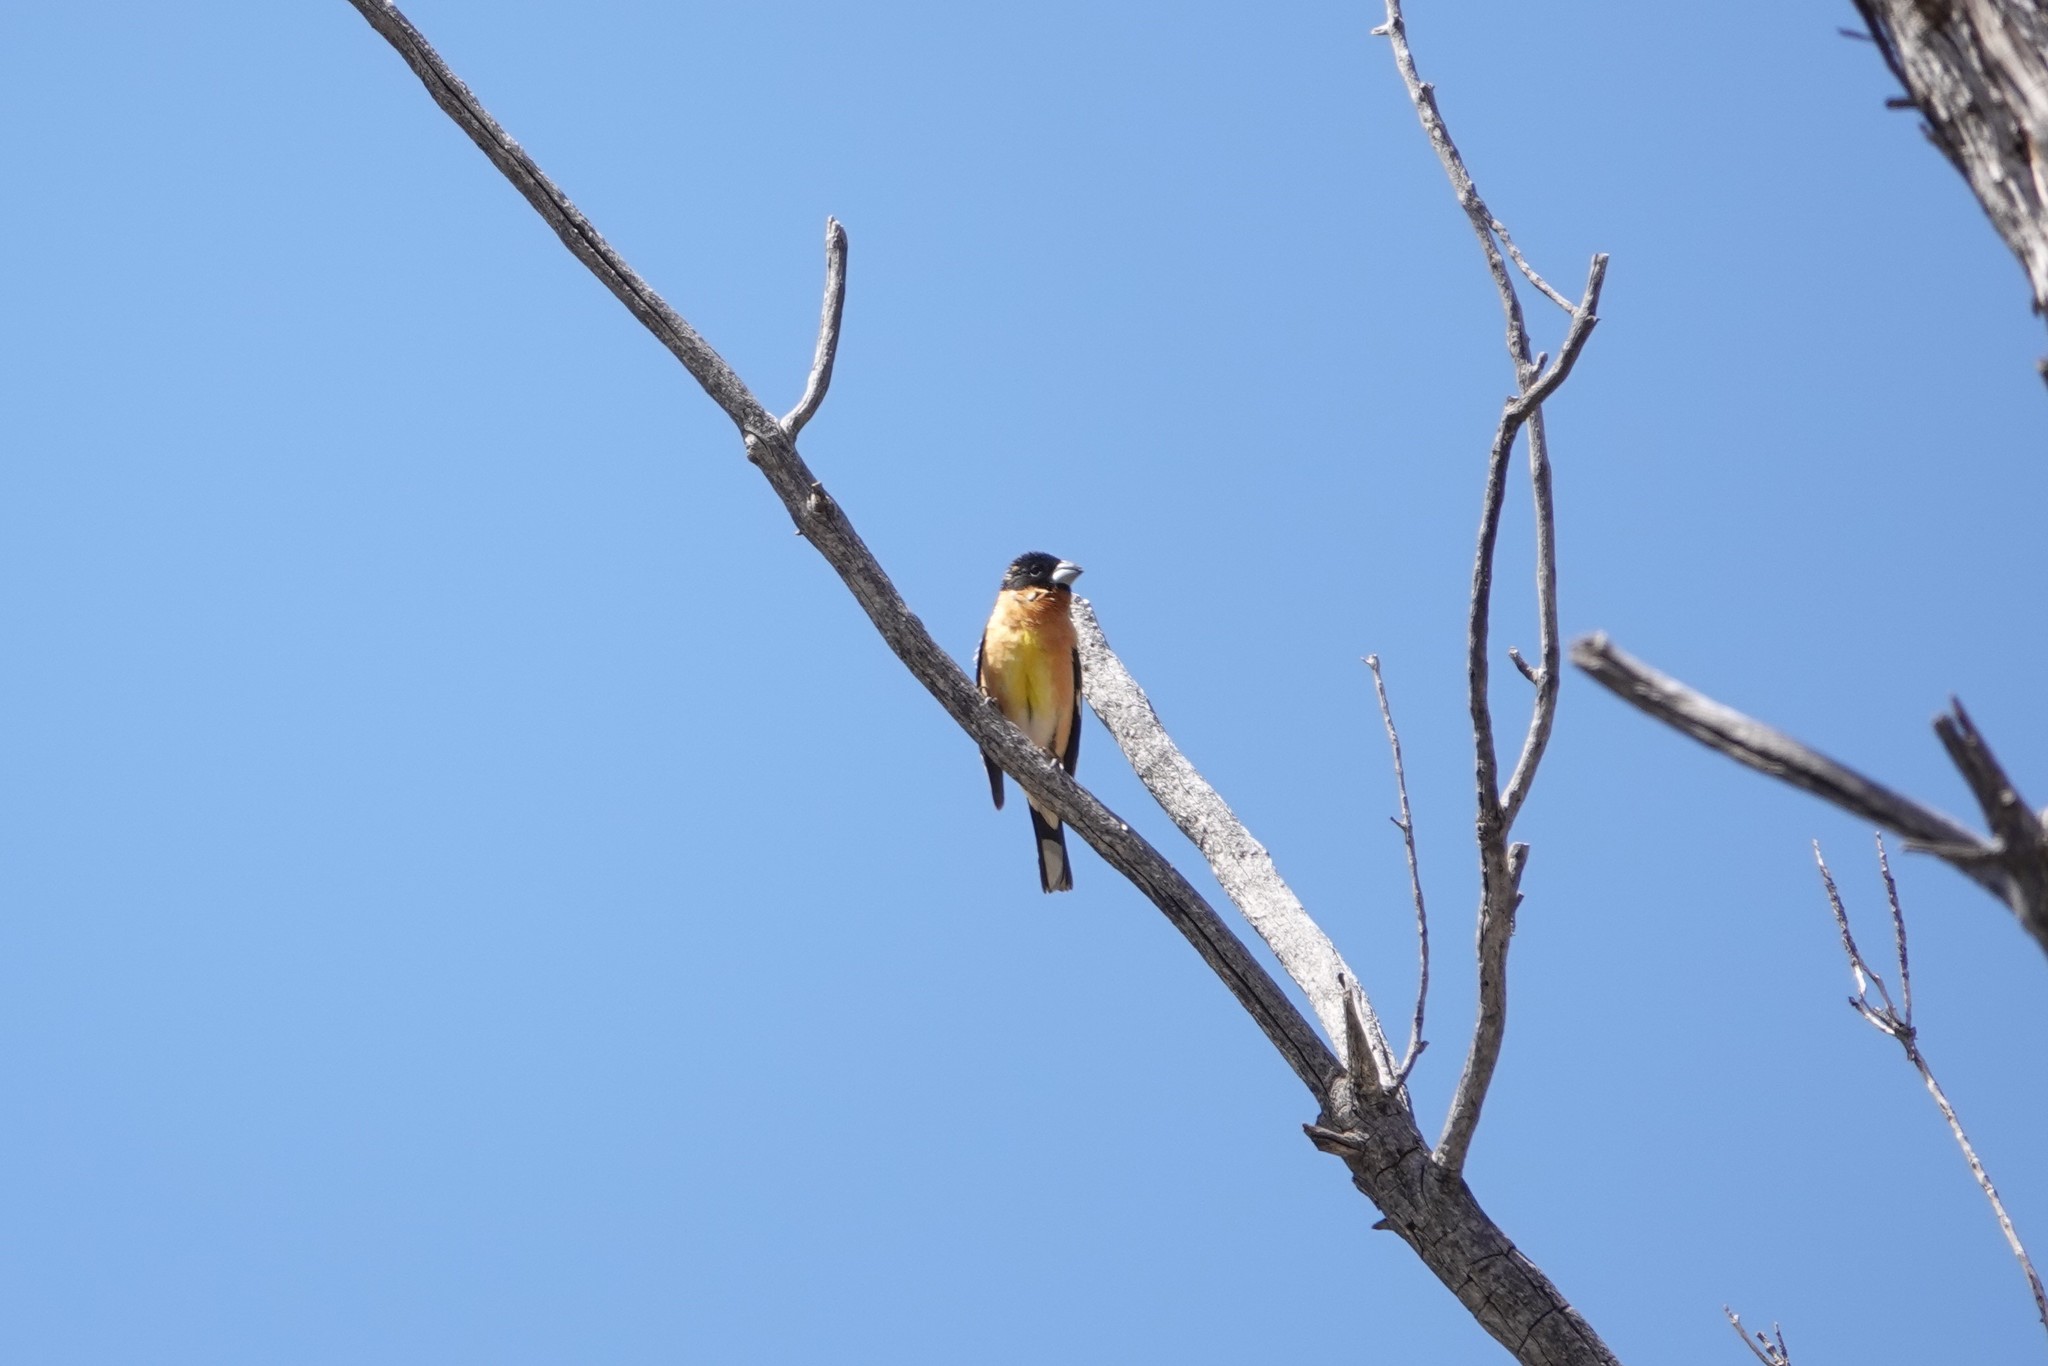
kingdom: Animalia
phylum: Chordata
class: Aves
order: Passeriformes
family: Cardinalidae
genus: Pheucticus
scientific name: Pheucticus melanocephalus
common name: Black-headed grosbeak
